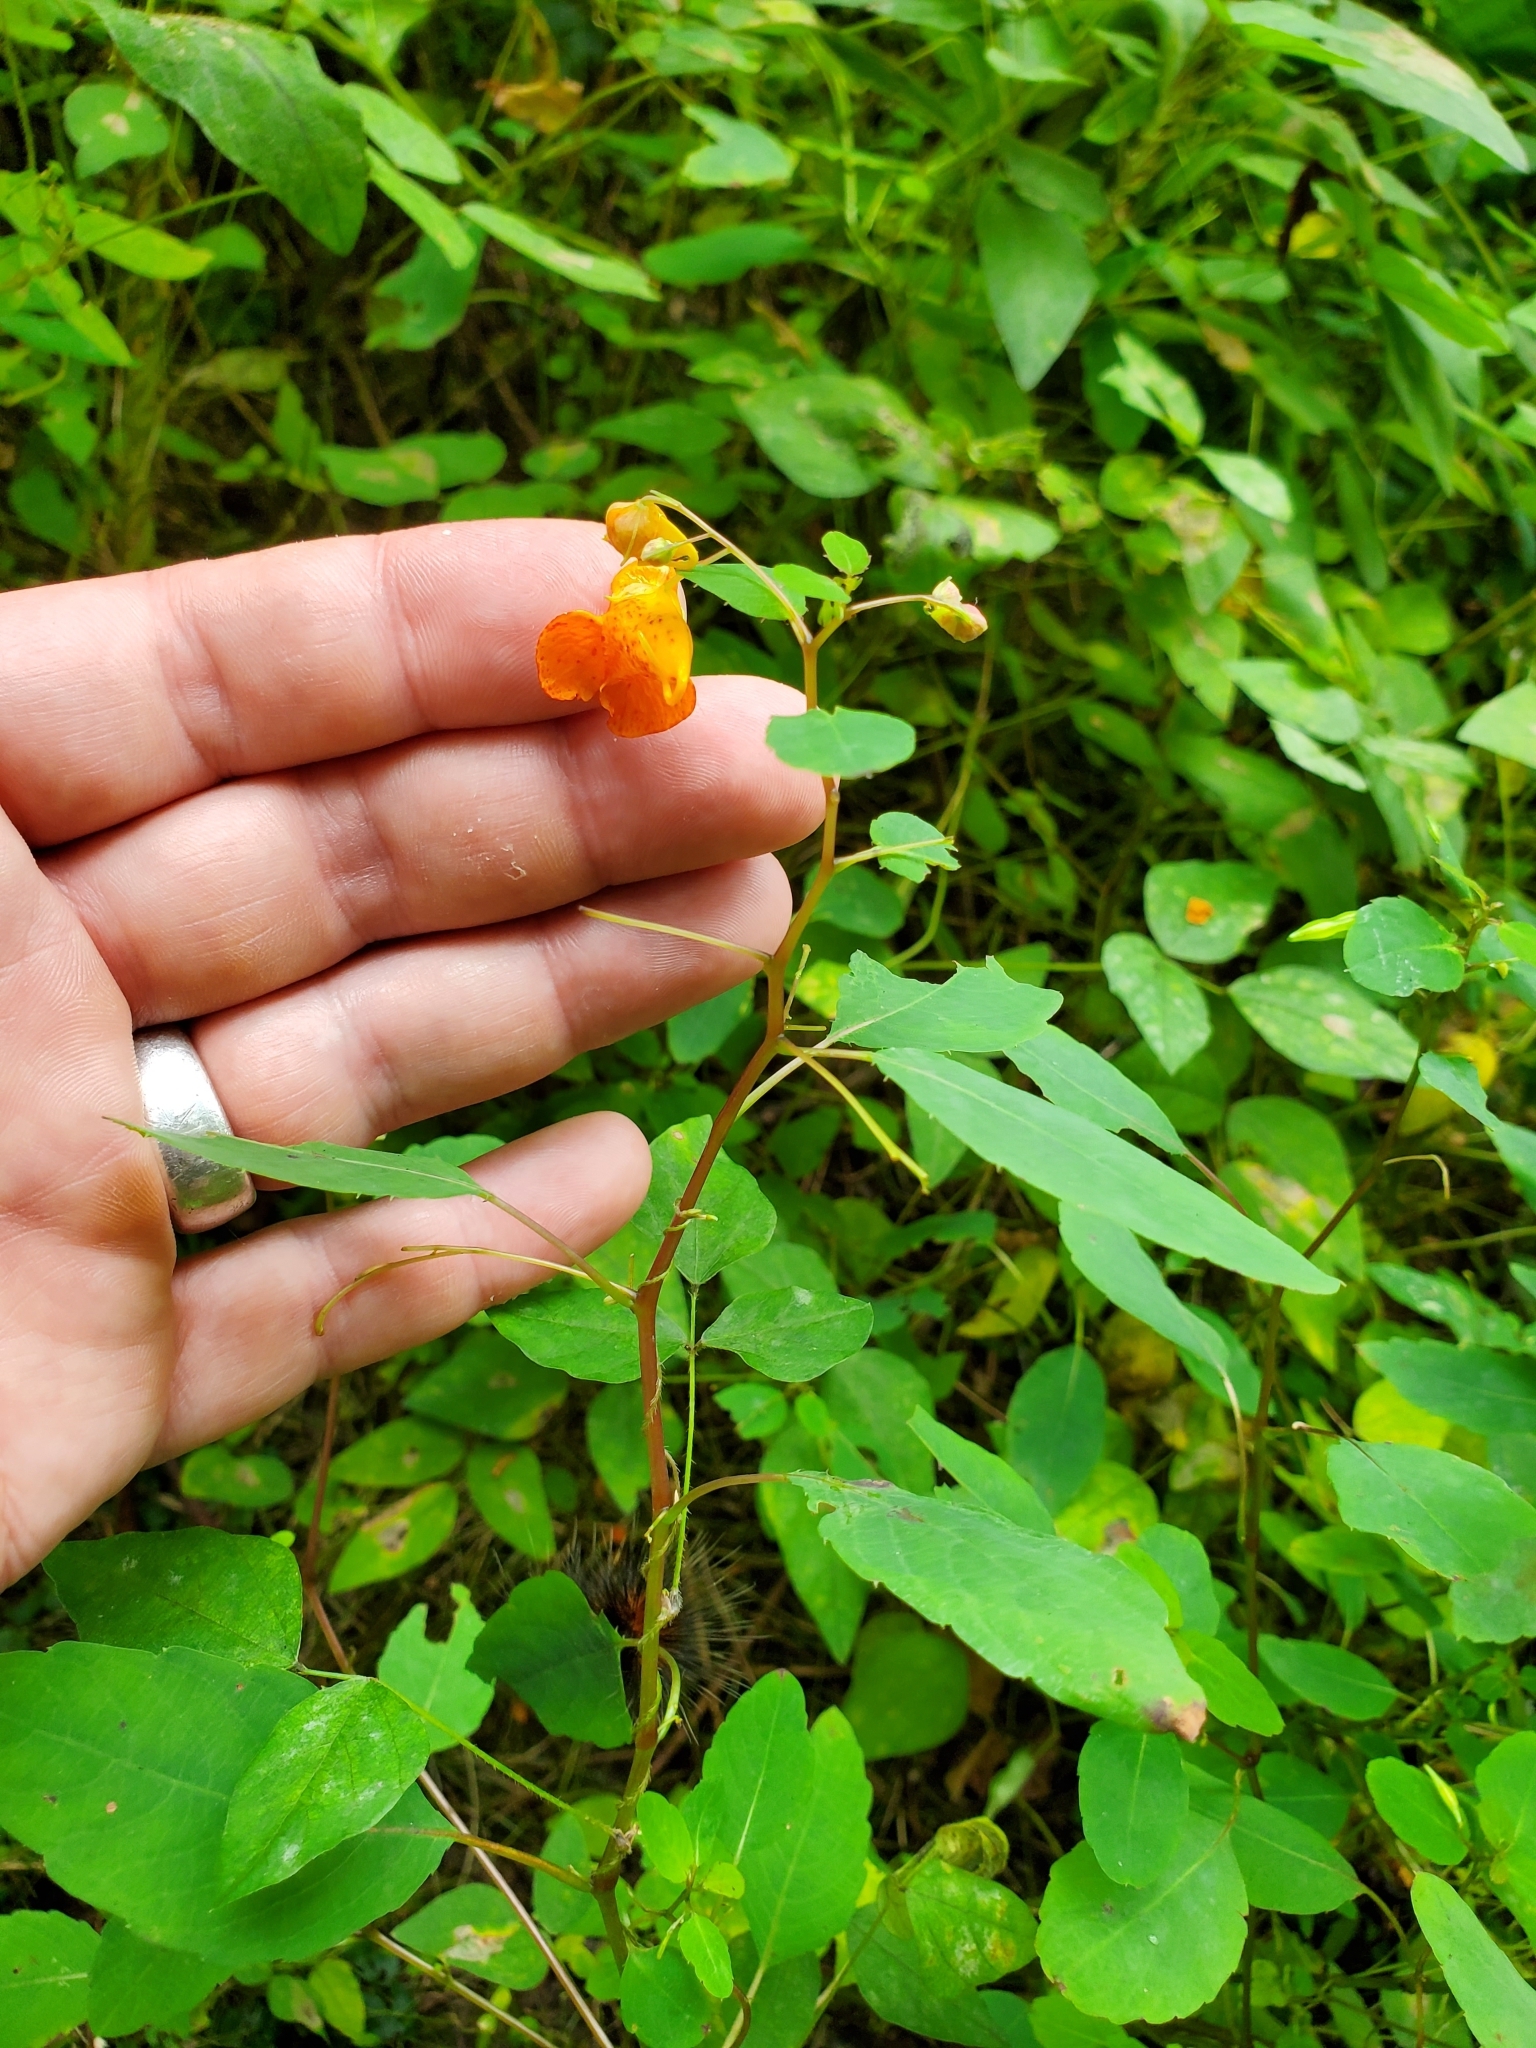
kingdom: Plantae
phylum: Tracheophyta
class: Magnoliopsida
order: Ericales
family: Balsaminaceae
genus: Impatiens
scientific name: Impatiens capensis
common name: Orange balsam
